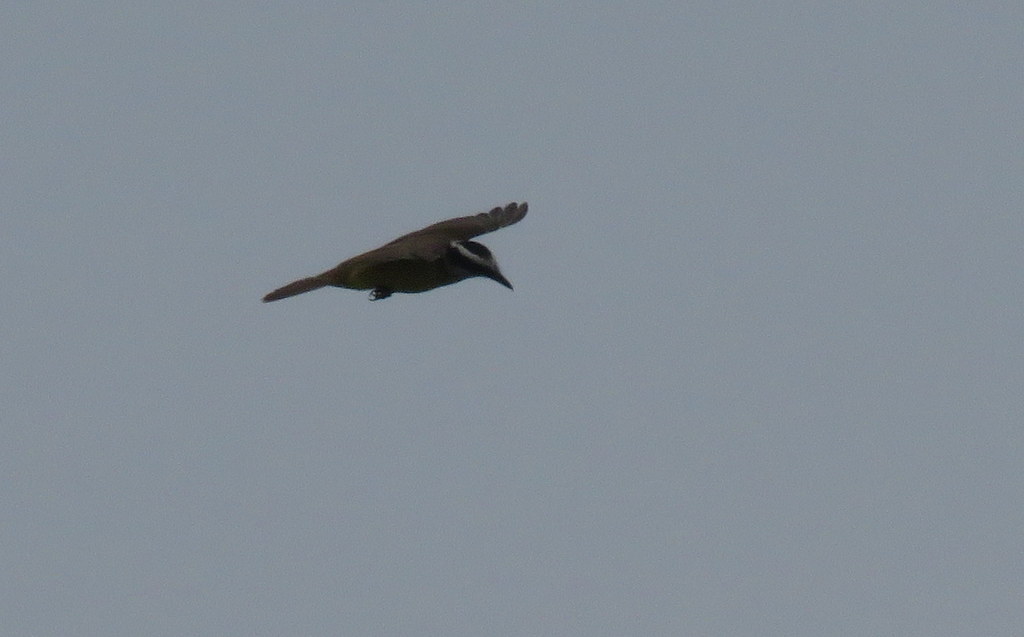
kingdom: Animalia
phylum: Chordata
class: Aves
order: Passeriformes
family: Tyrannidae
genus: Pitangus
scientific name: Pitangus sulphuratus
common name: Great kiskadee
